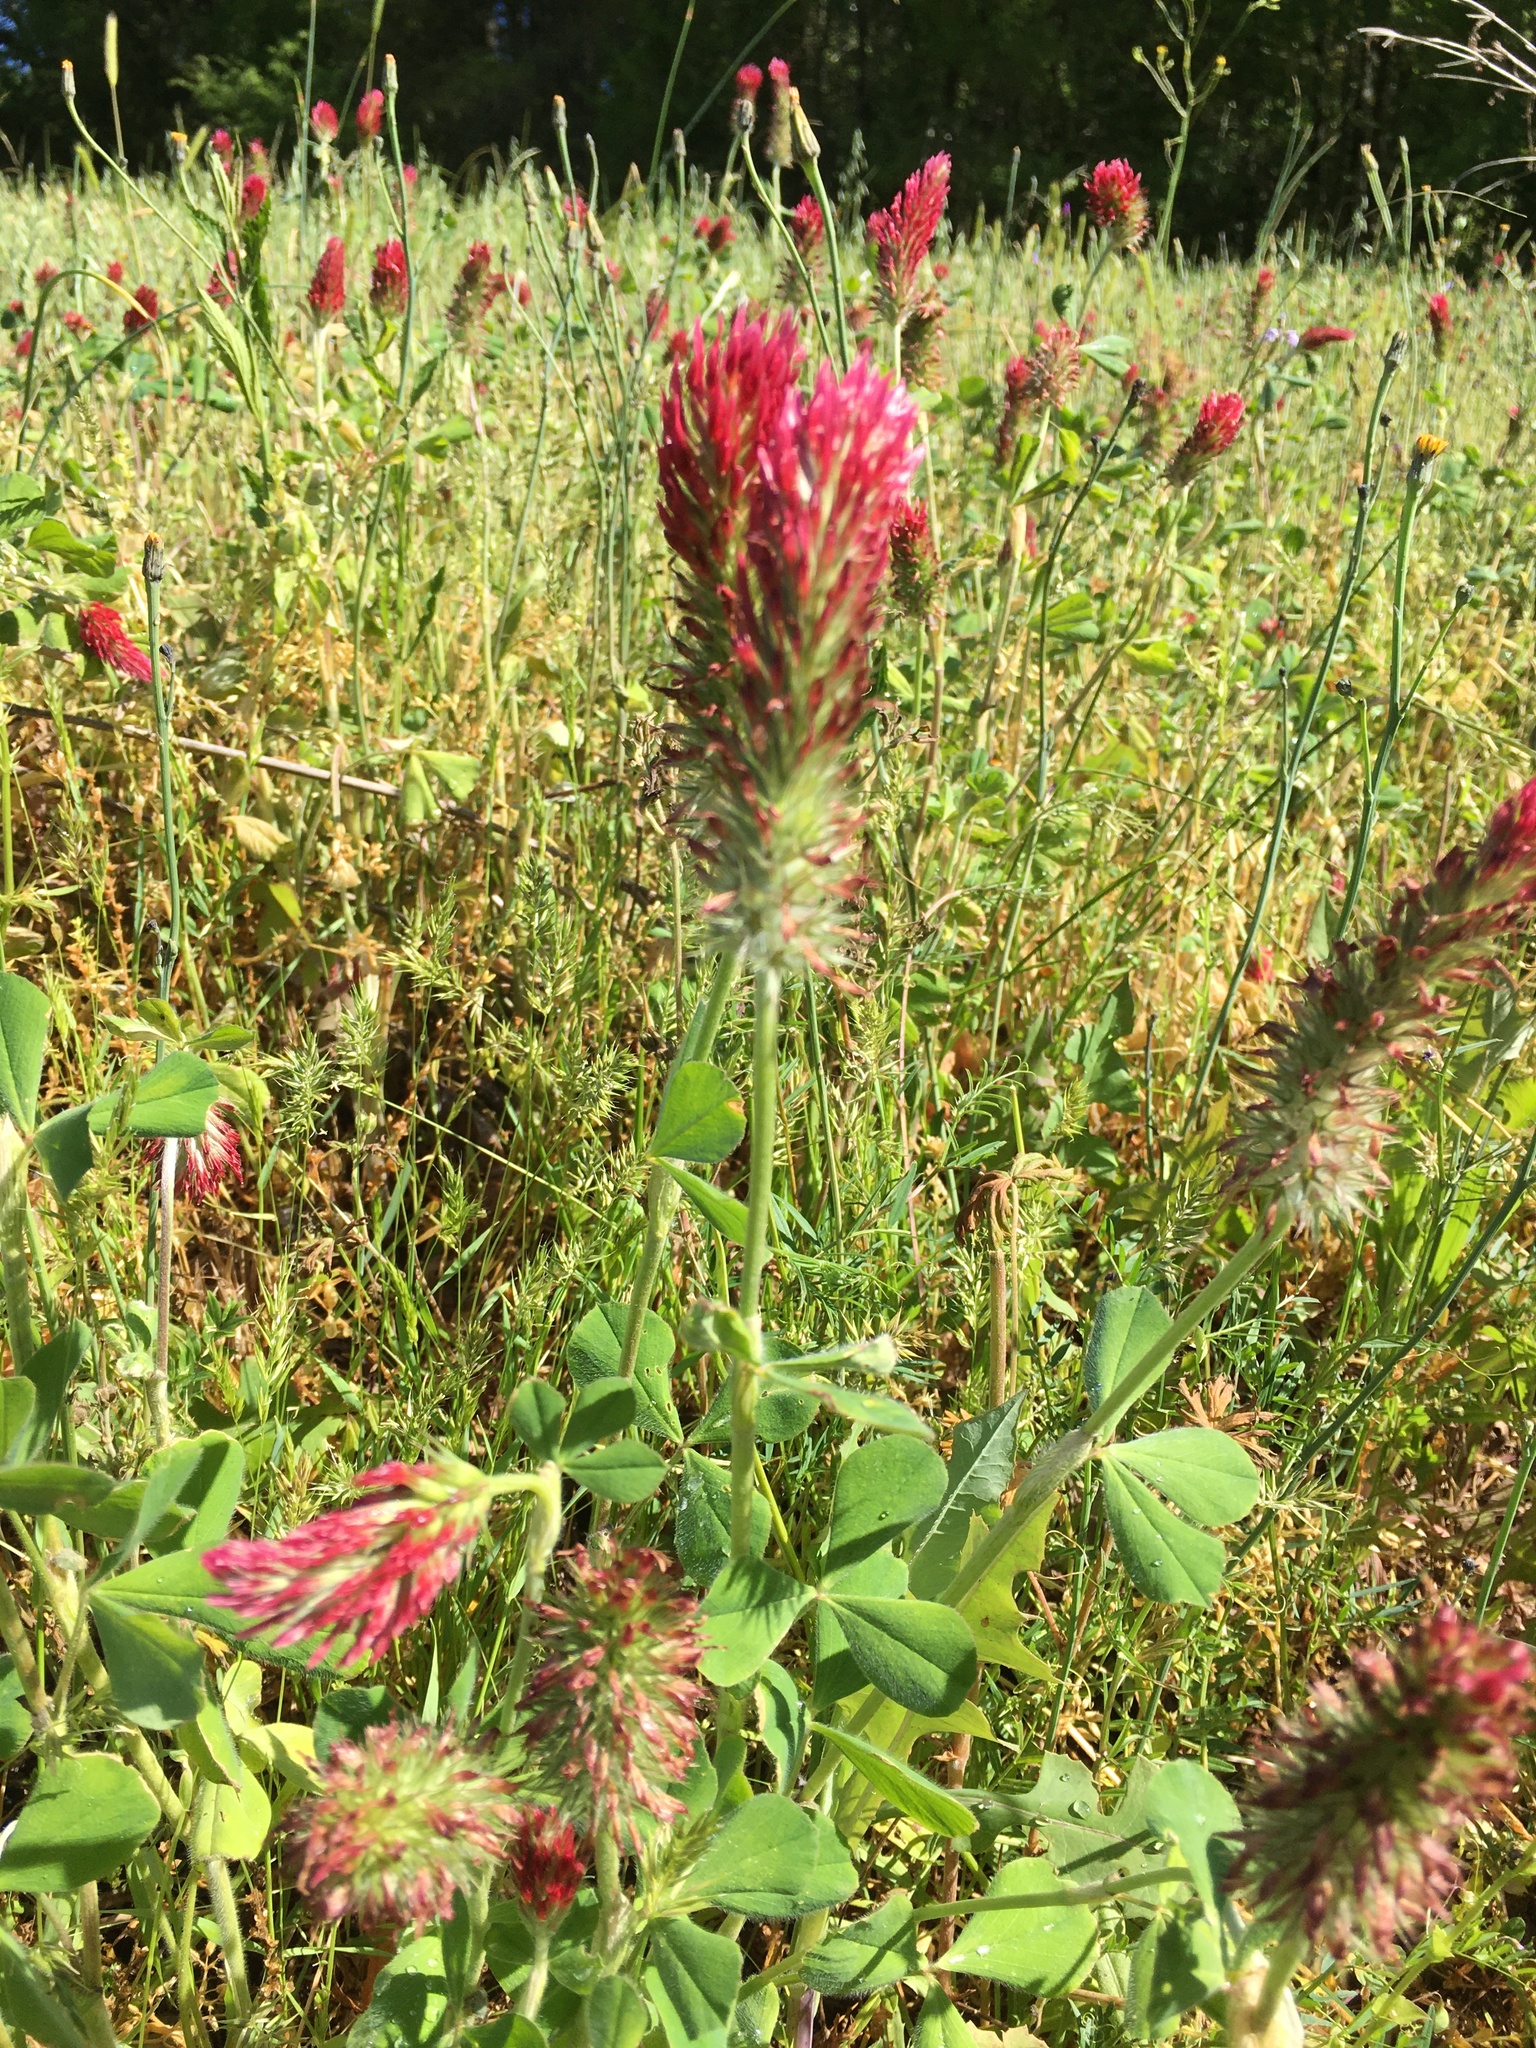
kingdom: Plantae
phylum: Tracheophyta
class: Magnoliopsida
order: Fabales
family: Fabaceae
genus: Trifolium
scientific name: Trifolium incarnatum
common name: Crimson clover
